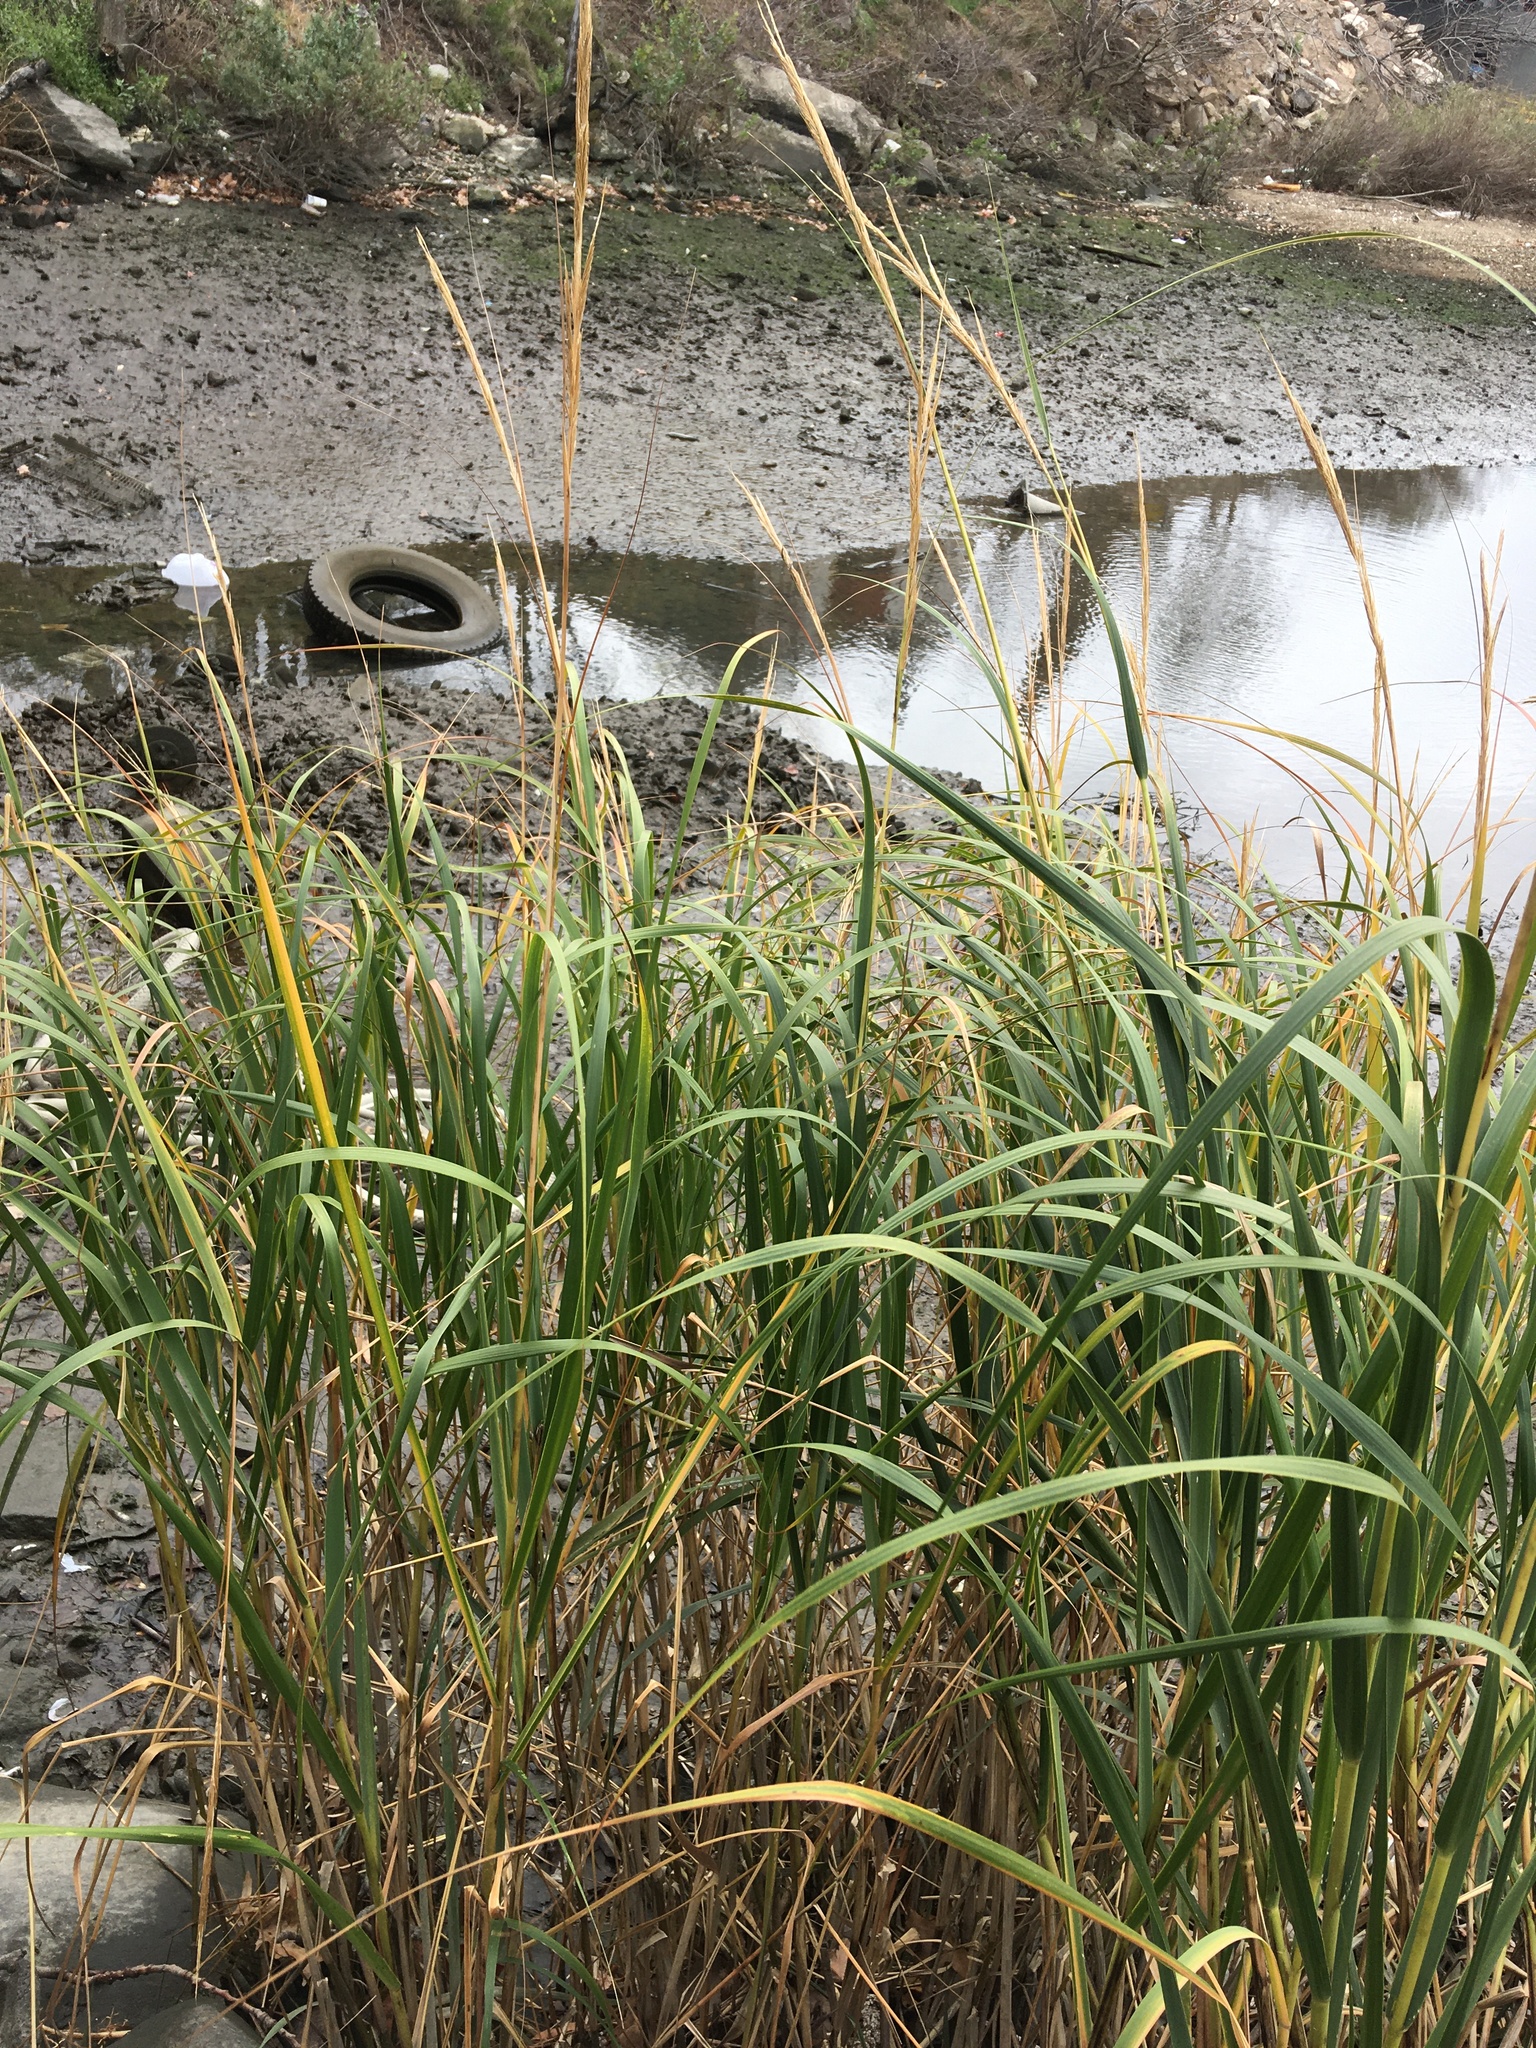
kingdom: Plantae
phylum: Tracheophyta
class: Liliopsida
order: Poales
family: Poaceae
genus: Sporobolus
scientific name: Sporobolus alterniflorus
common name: Atlantic cordgrass
